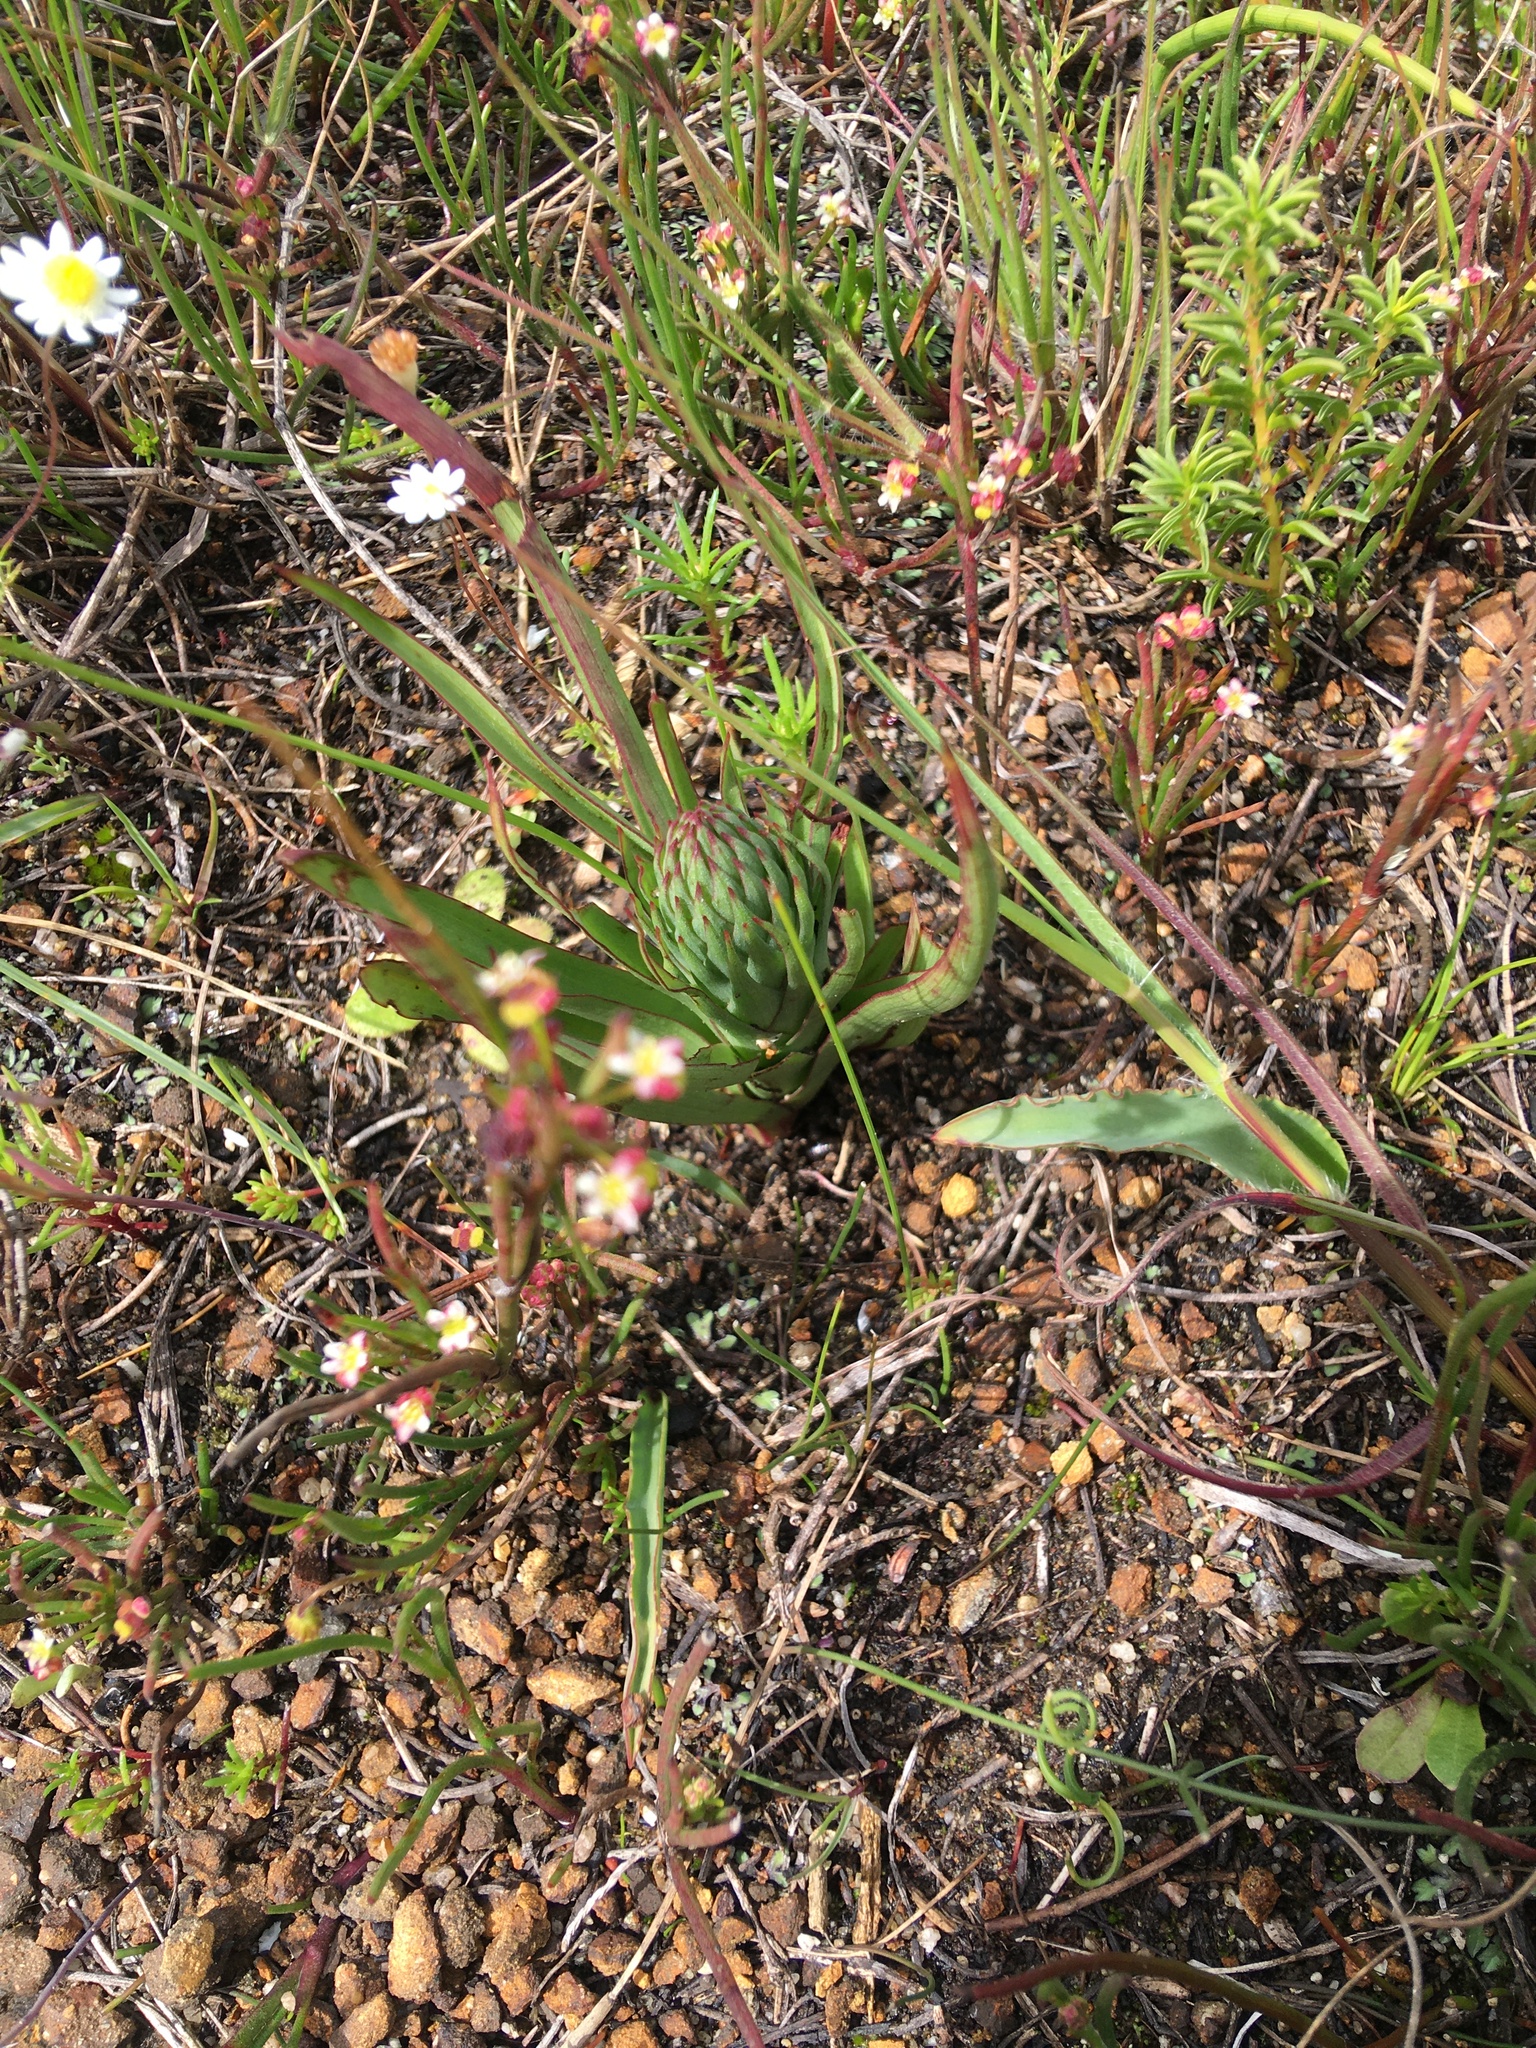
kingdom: Plantae
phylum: Tracheophyta
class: Liliopsida
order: Asparagales
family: Orchidaceae
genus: Disa
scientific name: Disa bracteata
